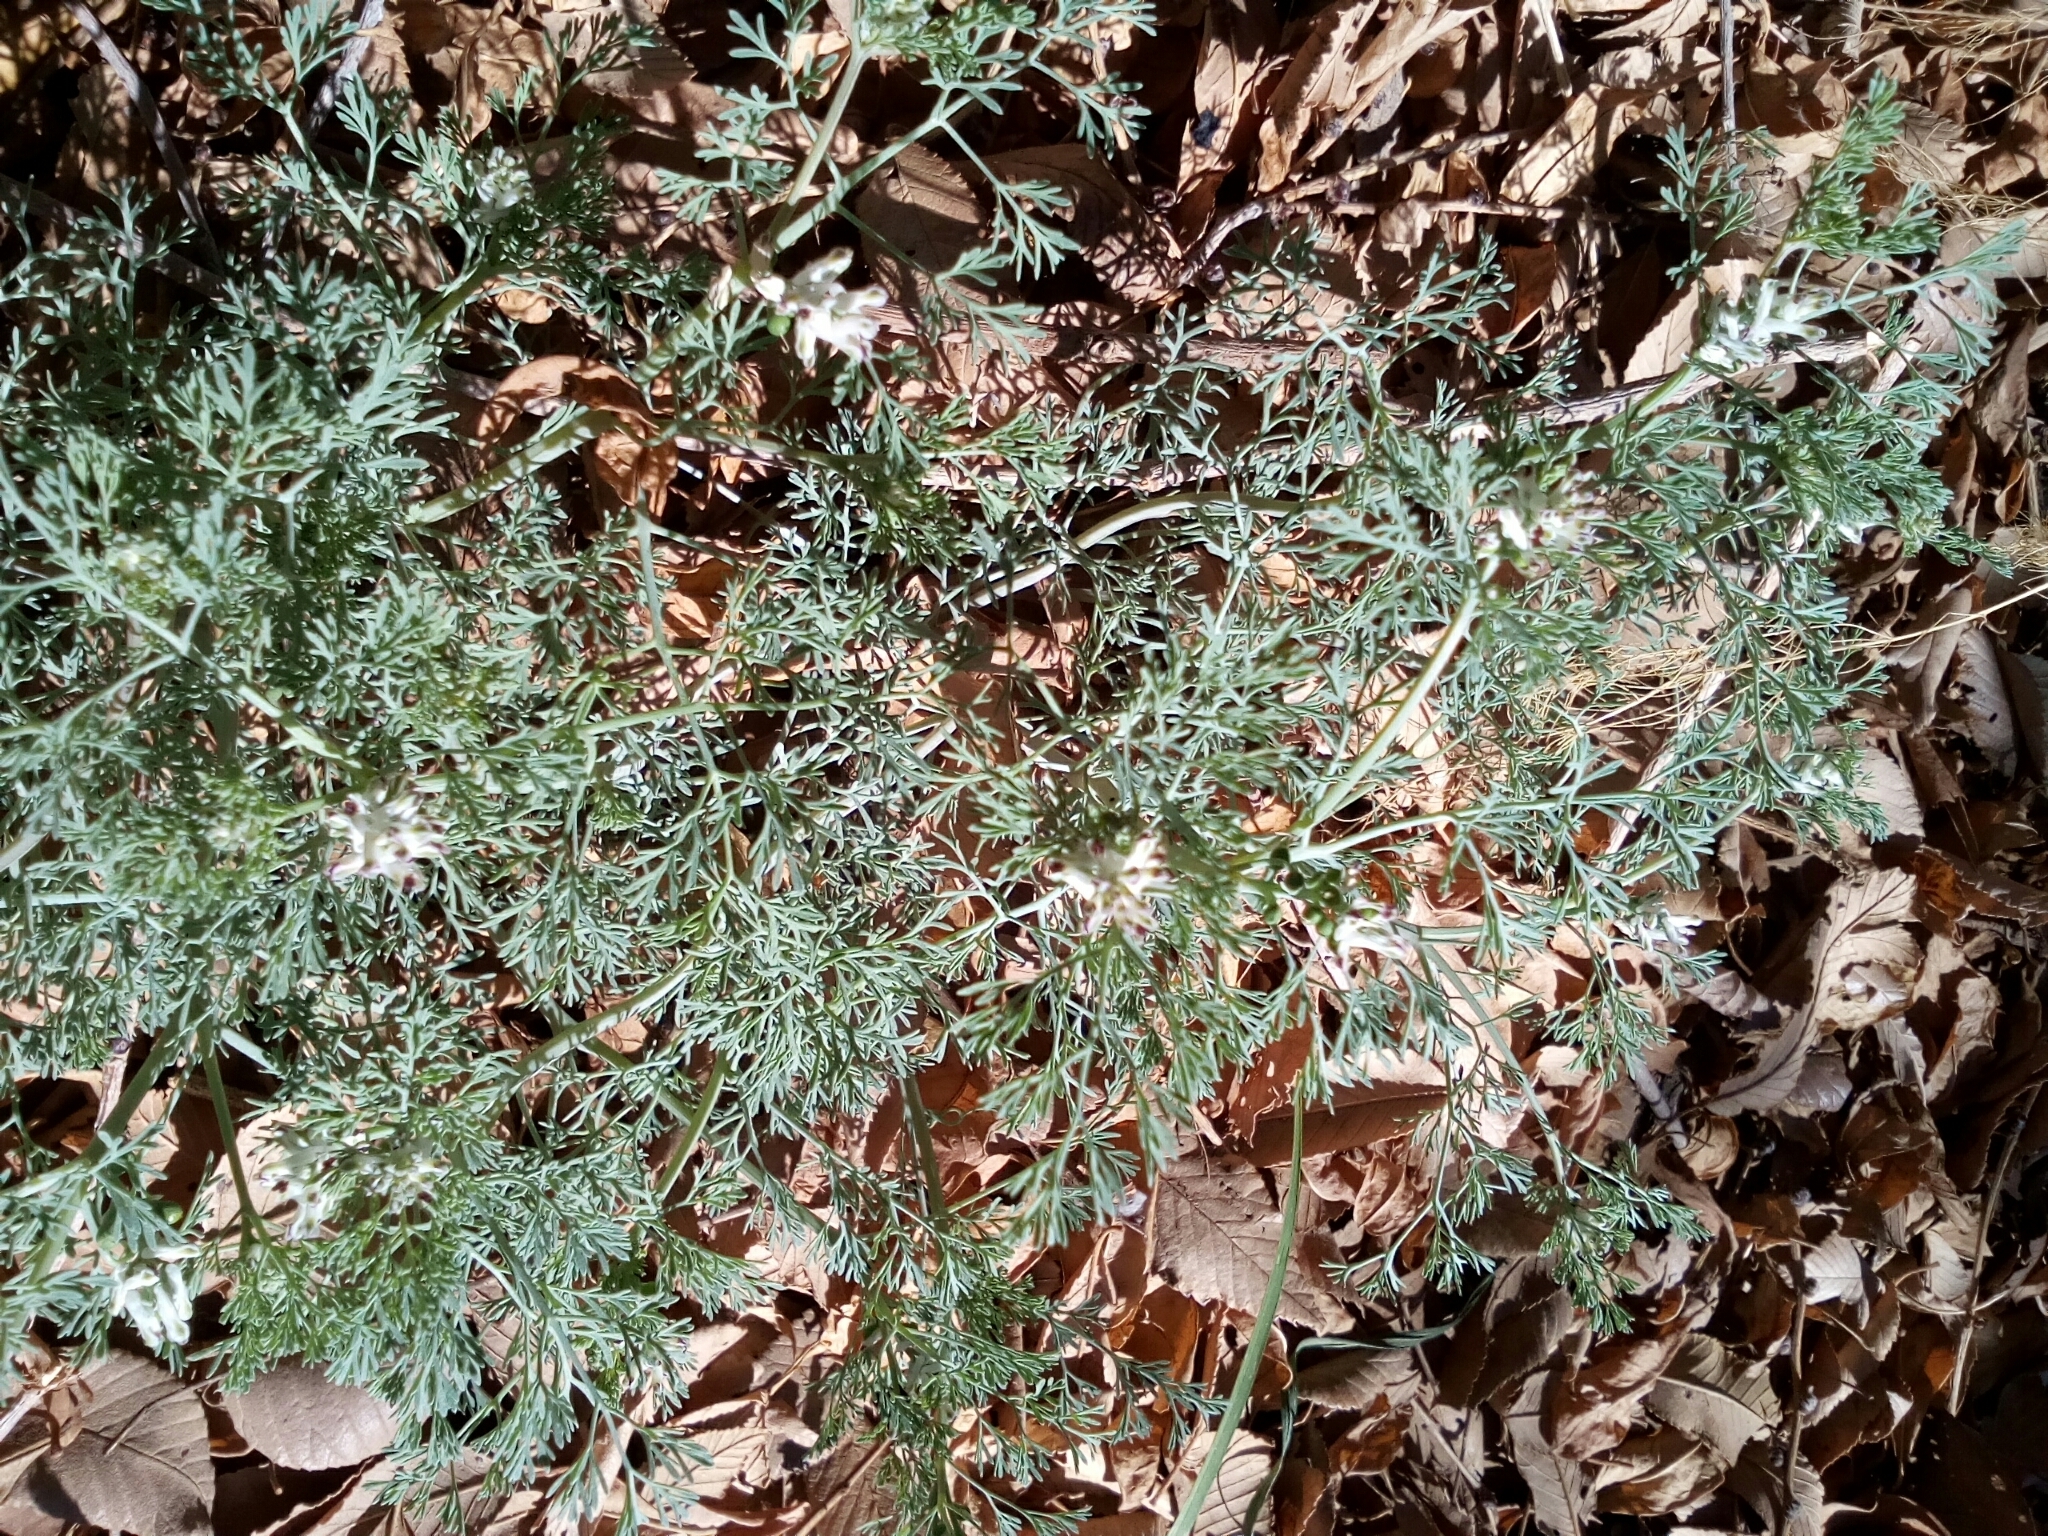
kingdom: Plantae
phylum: Tracheophyta
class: Magnoliopsida
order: Ranunculales
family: Papaveraceae
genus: Fumaria
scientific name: Fumaria parviflora
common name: Fine-leaved fumitory
